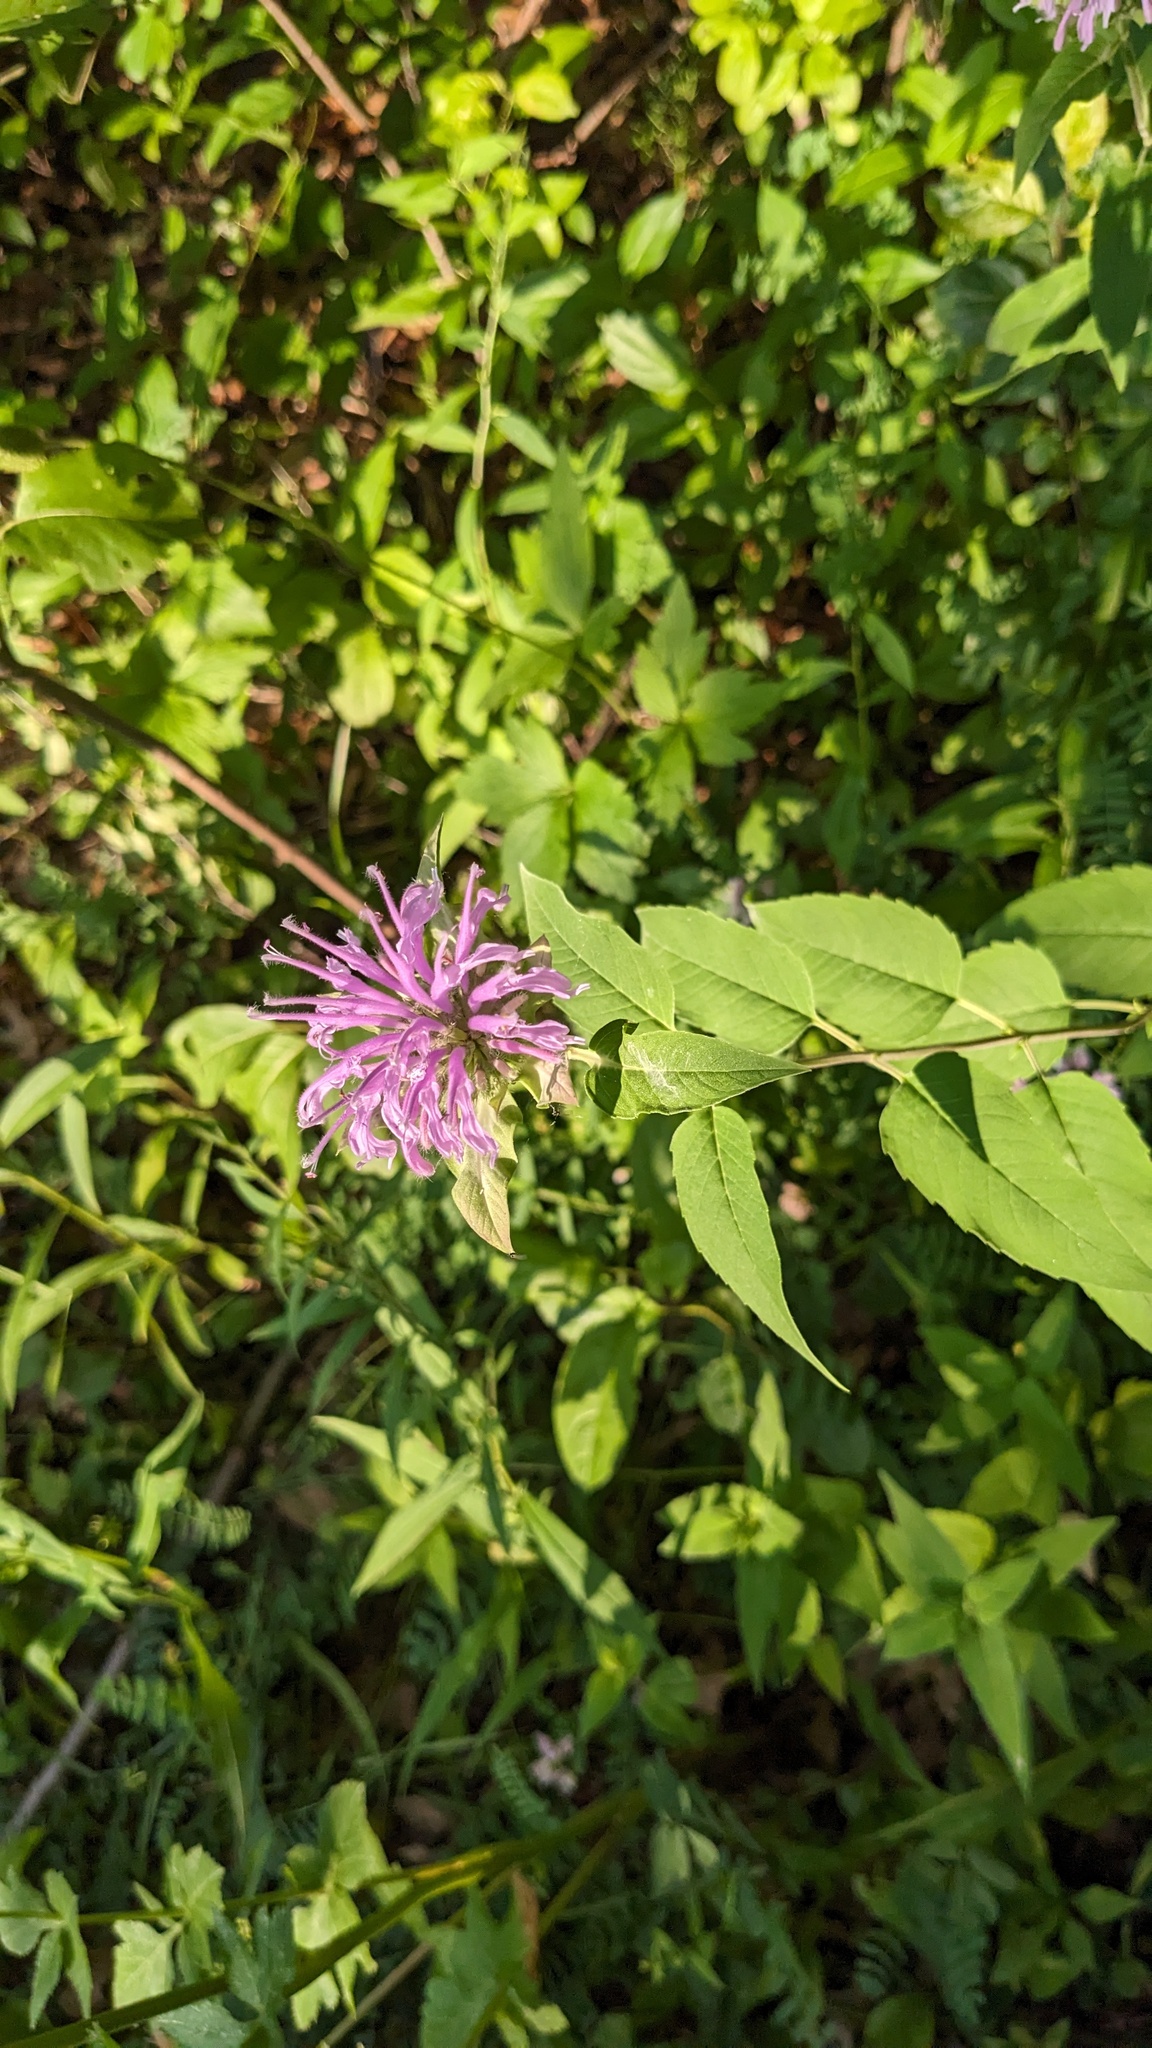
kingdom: Plantae
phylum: Tracheophyta
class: Magnoliopsida
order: Lamiales
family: Lamiaceae
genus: Monarda
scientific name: Monarda fistulosa
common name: Purple beebalm
